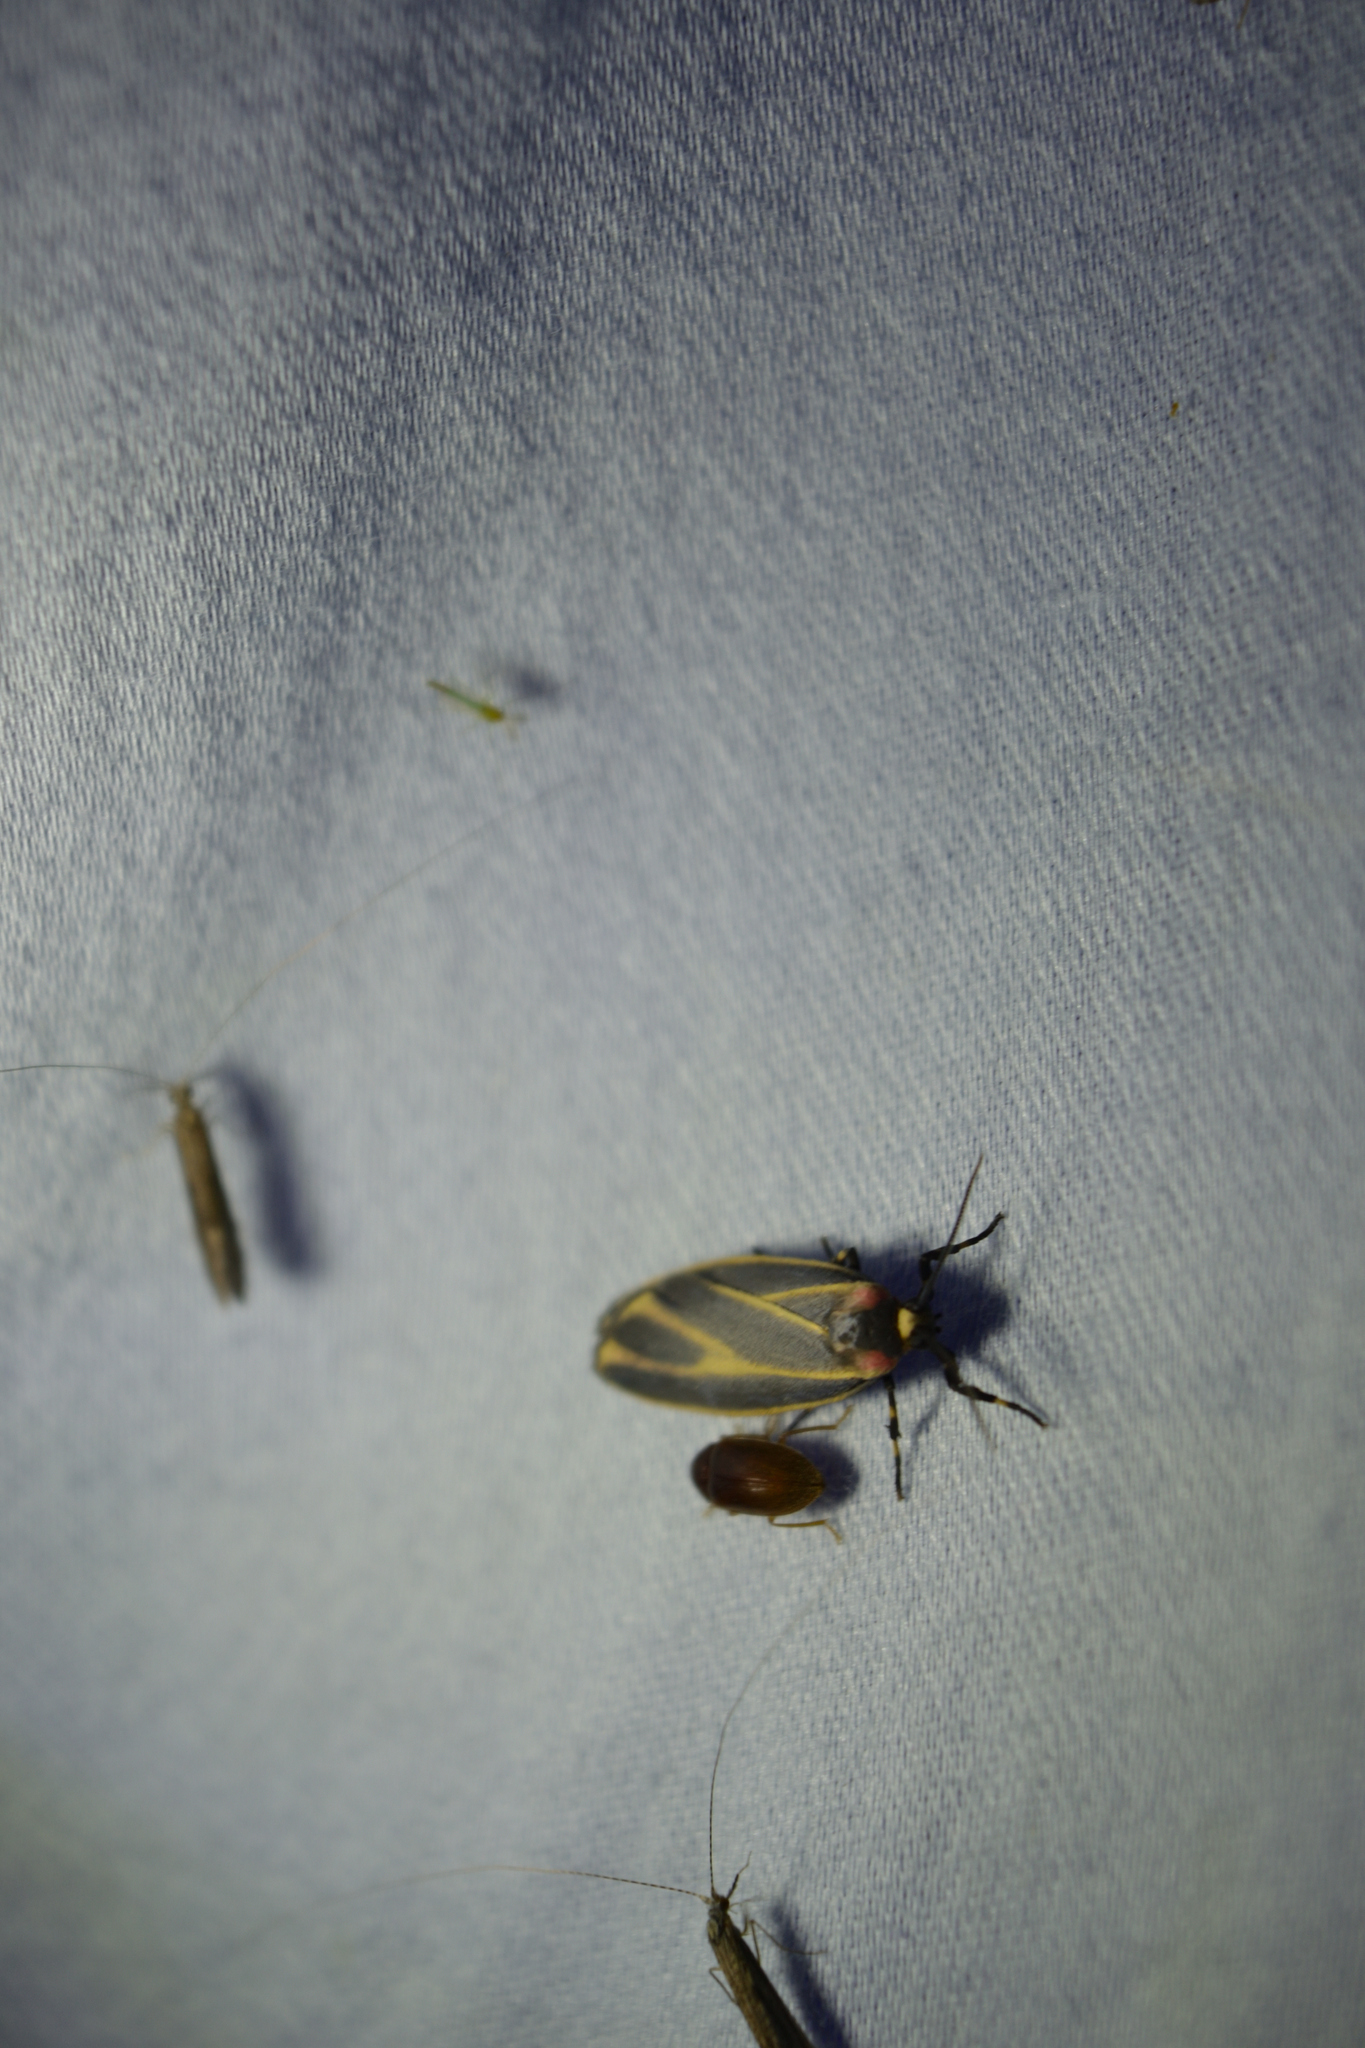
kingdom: Animalia
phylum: Arthropoda
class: Insecta
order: Lepidoptera
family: Erebidae
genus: Hypoprepia
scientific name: Hypoprepia fucosa
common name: Painted lichen moth
